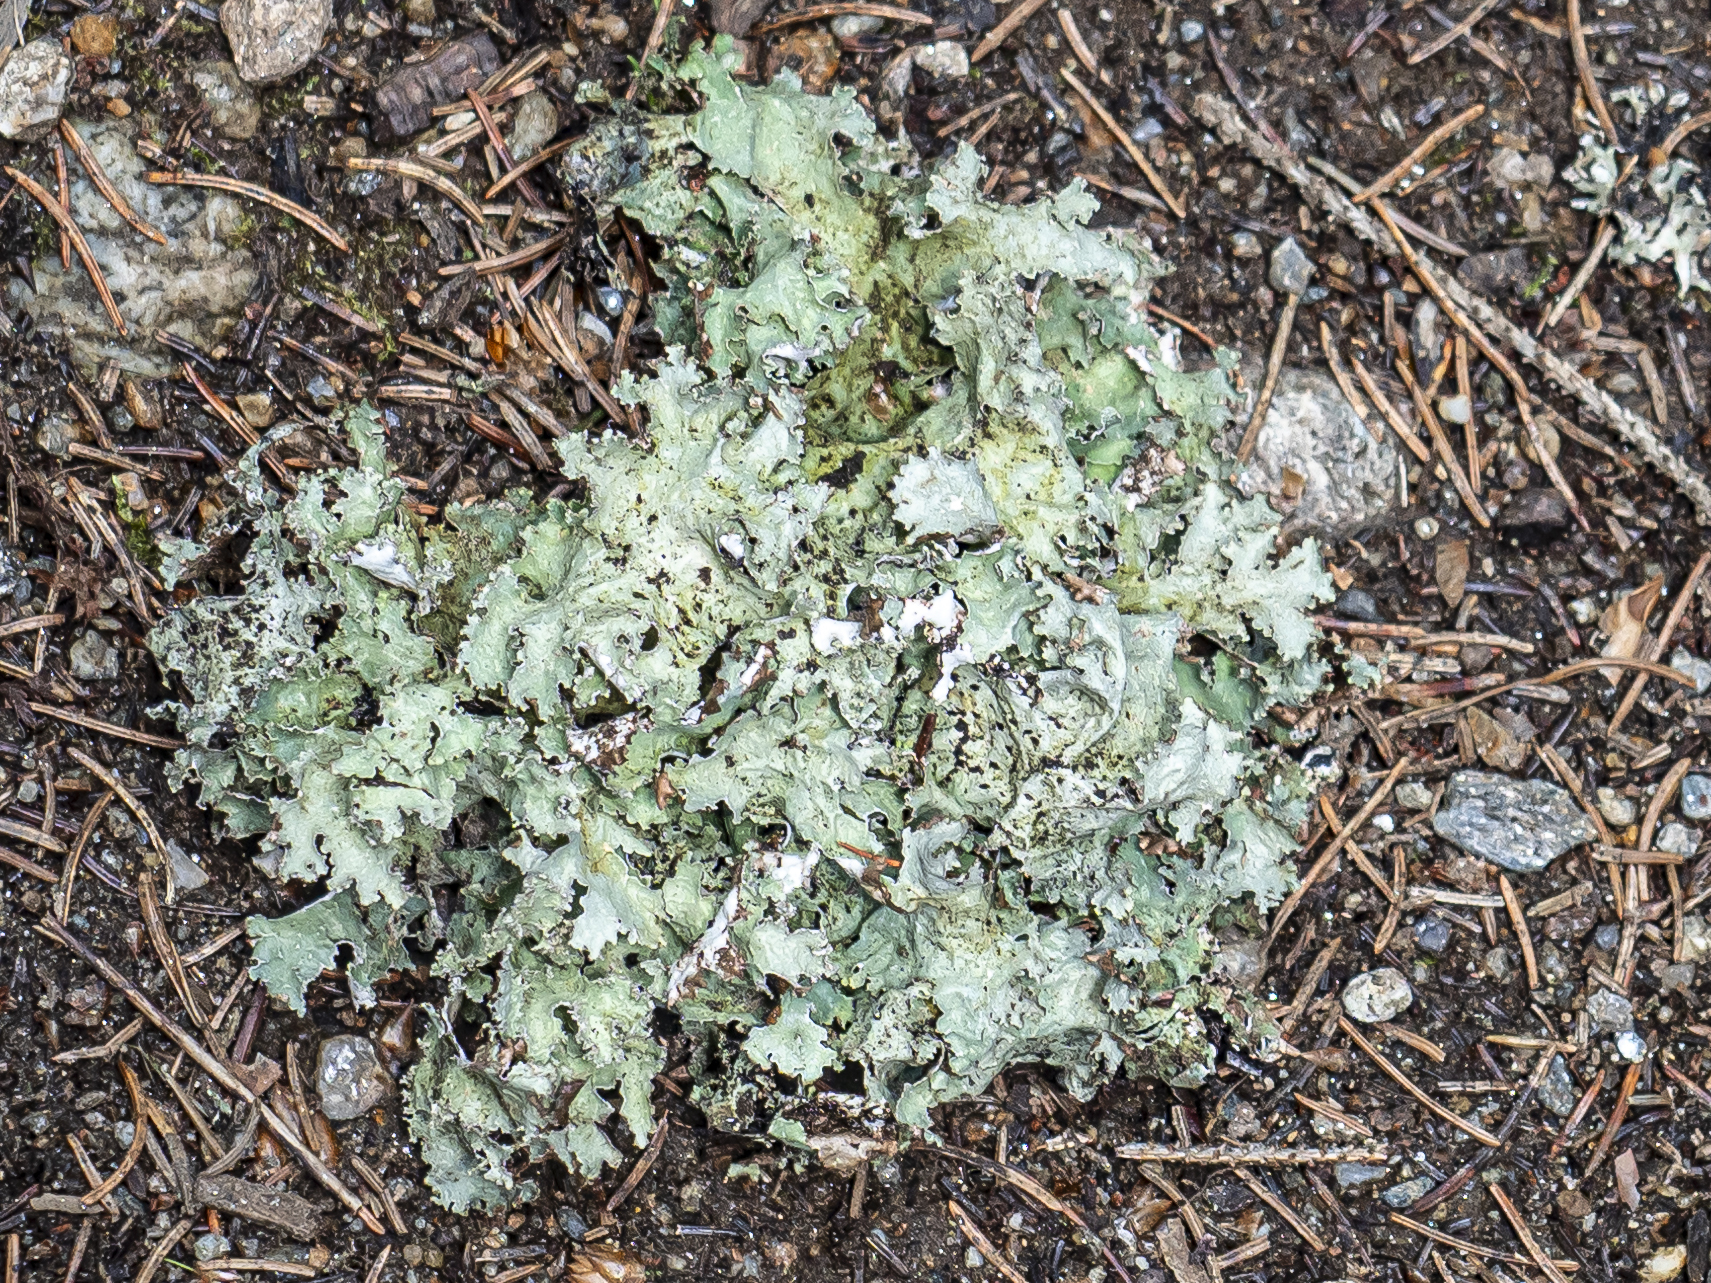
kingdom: Fungi
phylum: Ascomycota
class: Lecanoromycetes
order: Lecanorales
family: Parmeliaceae
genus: Platismatia
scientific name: Platismatia glauca
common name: Varied rag lichen
